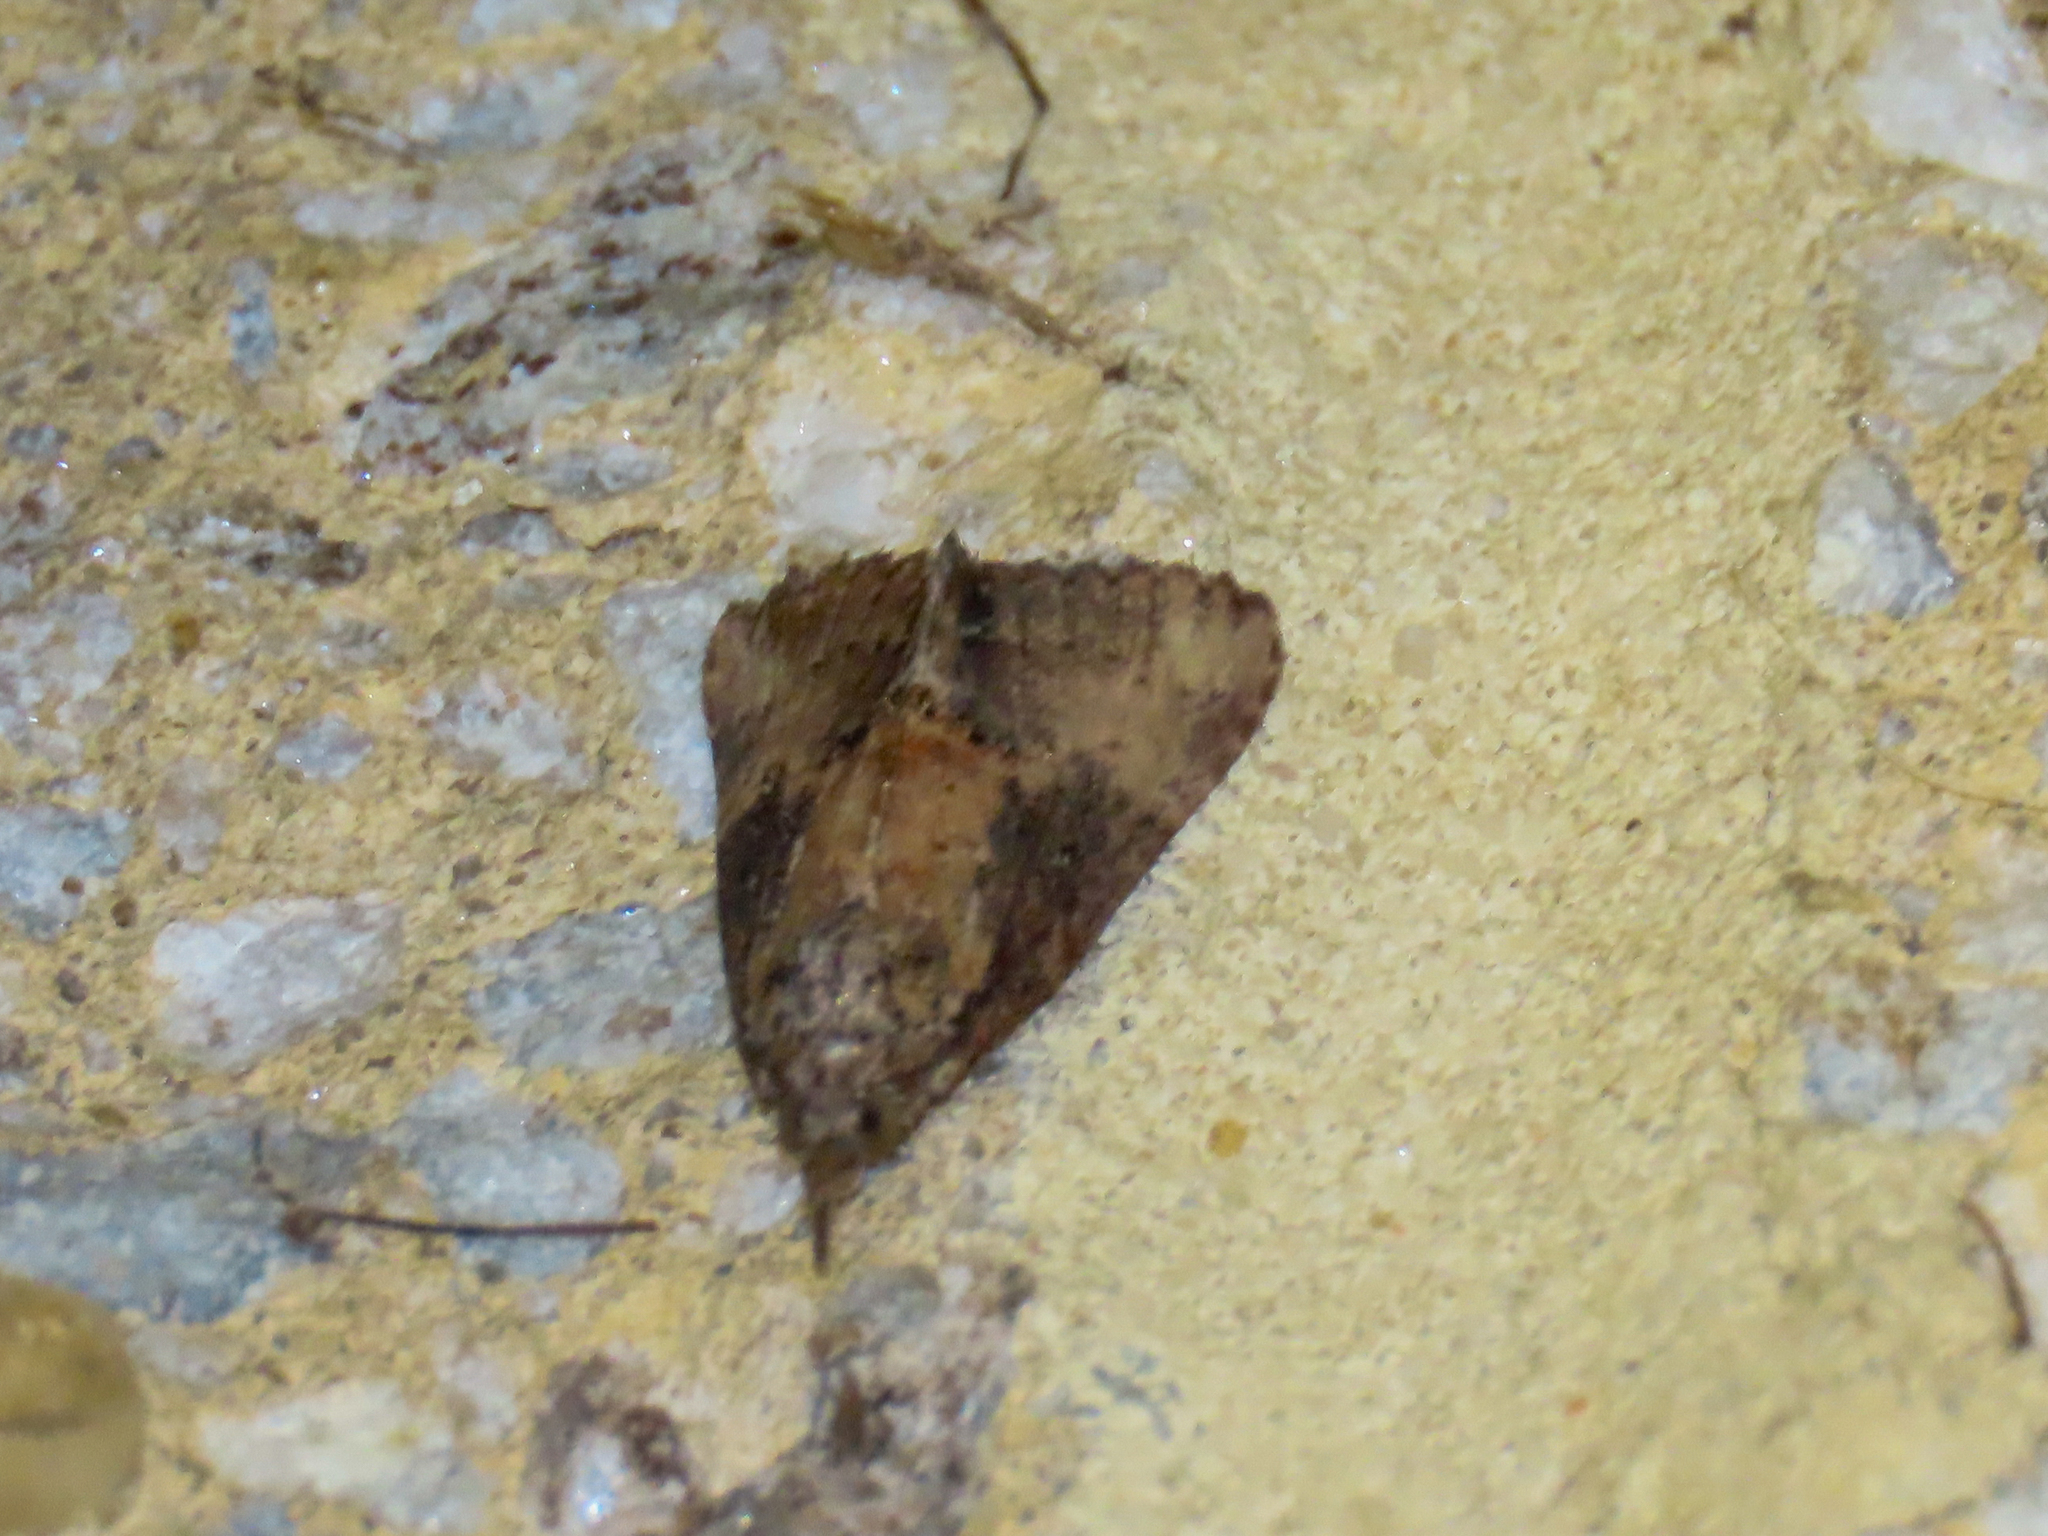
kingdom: Animalia
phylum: Arthropoda
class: Insecta
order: Lepidoptera
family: Erebidae
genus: Hypena
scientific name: Hypena scabra
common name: Green cloverworm
